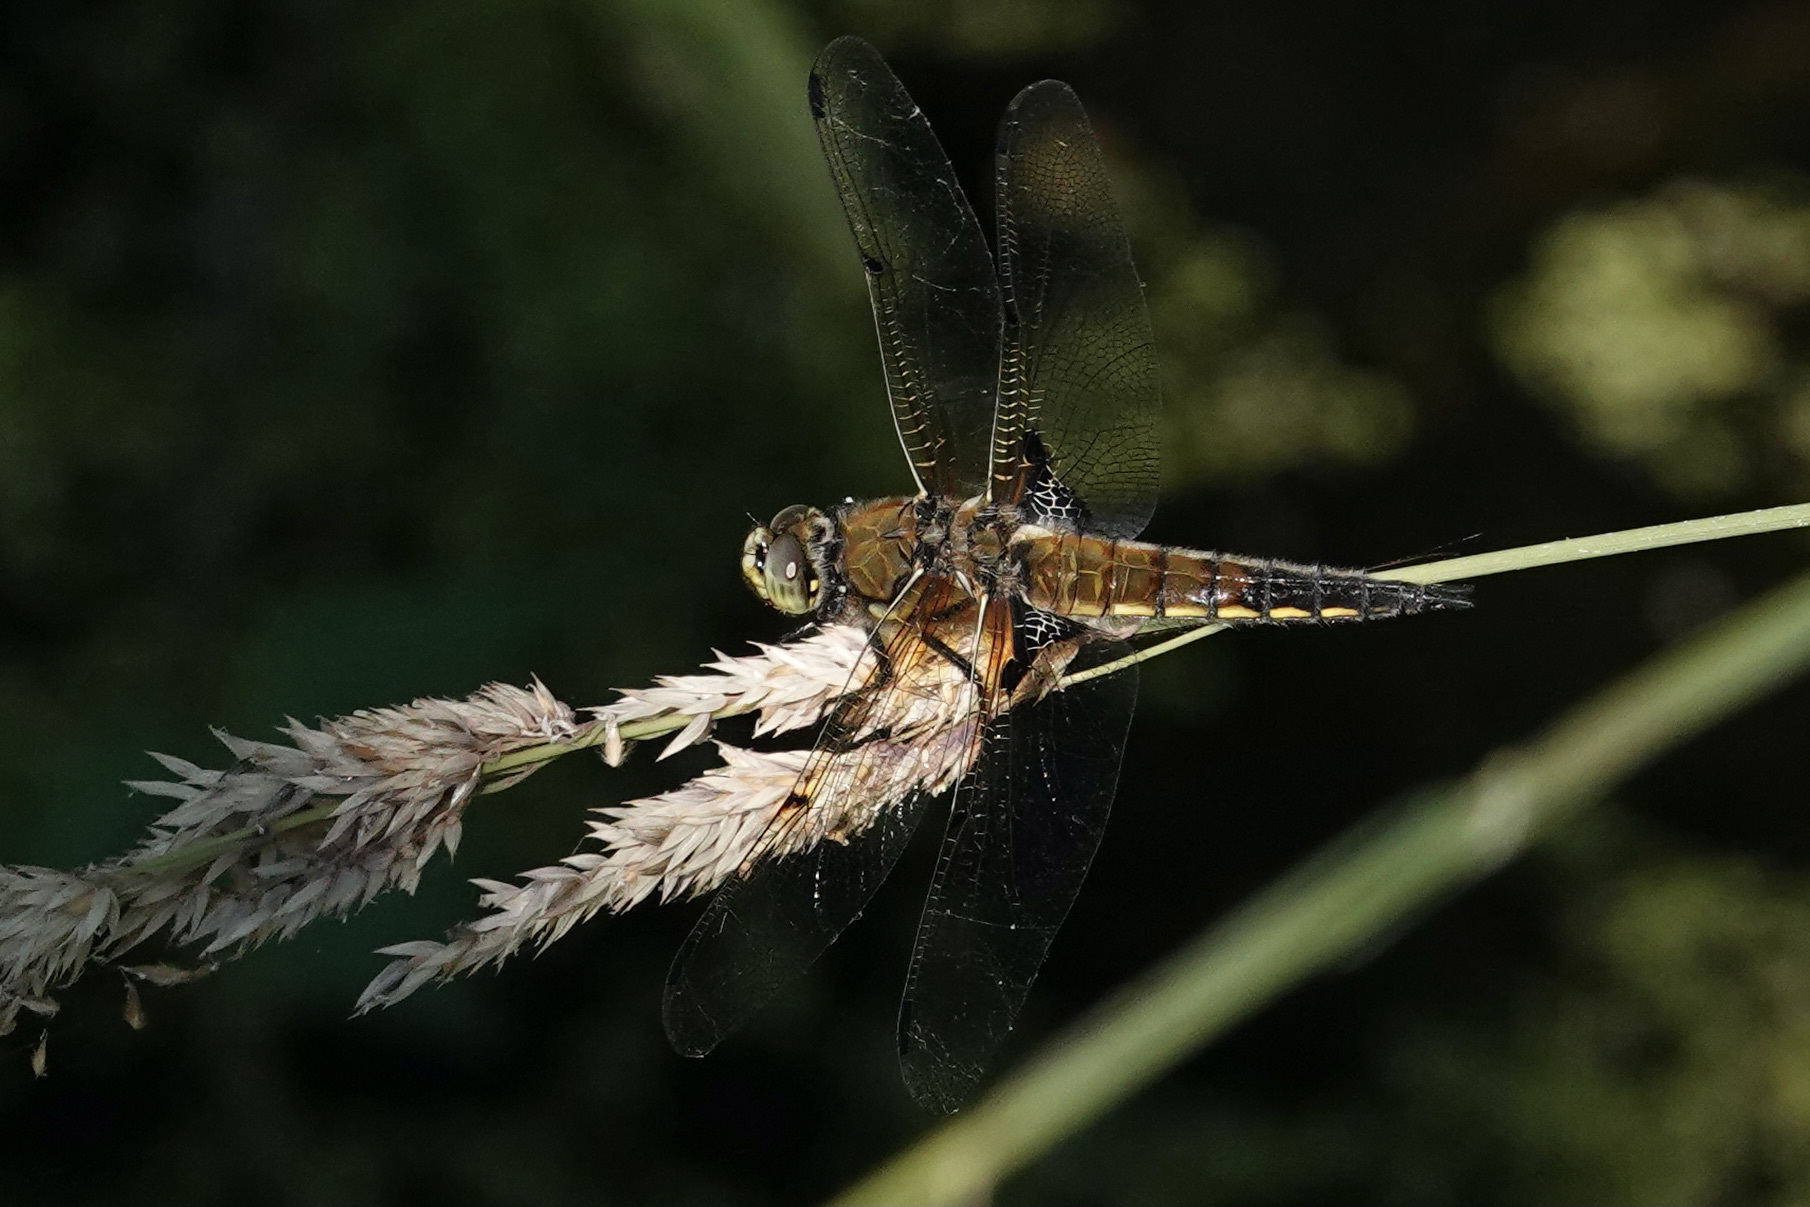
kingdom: Animalia
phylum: Arthropoda
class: Insecta
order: Odonata
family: Libellulidae
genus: Libellula
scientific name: Libellula quadrimaculata
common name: Four-spotted chaser
